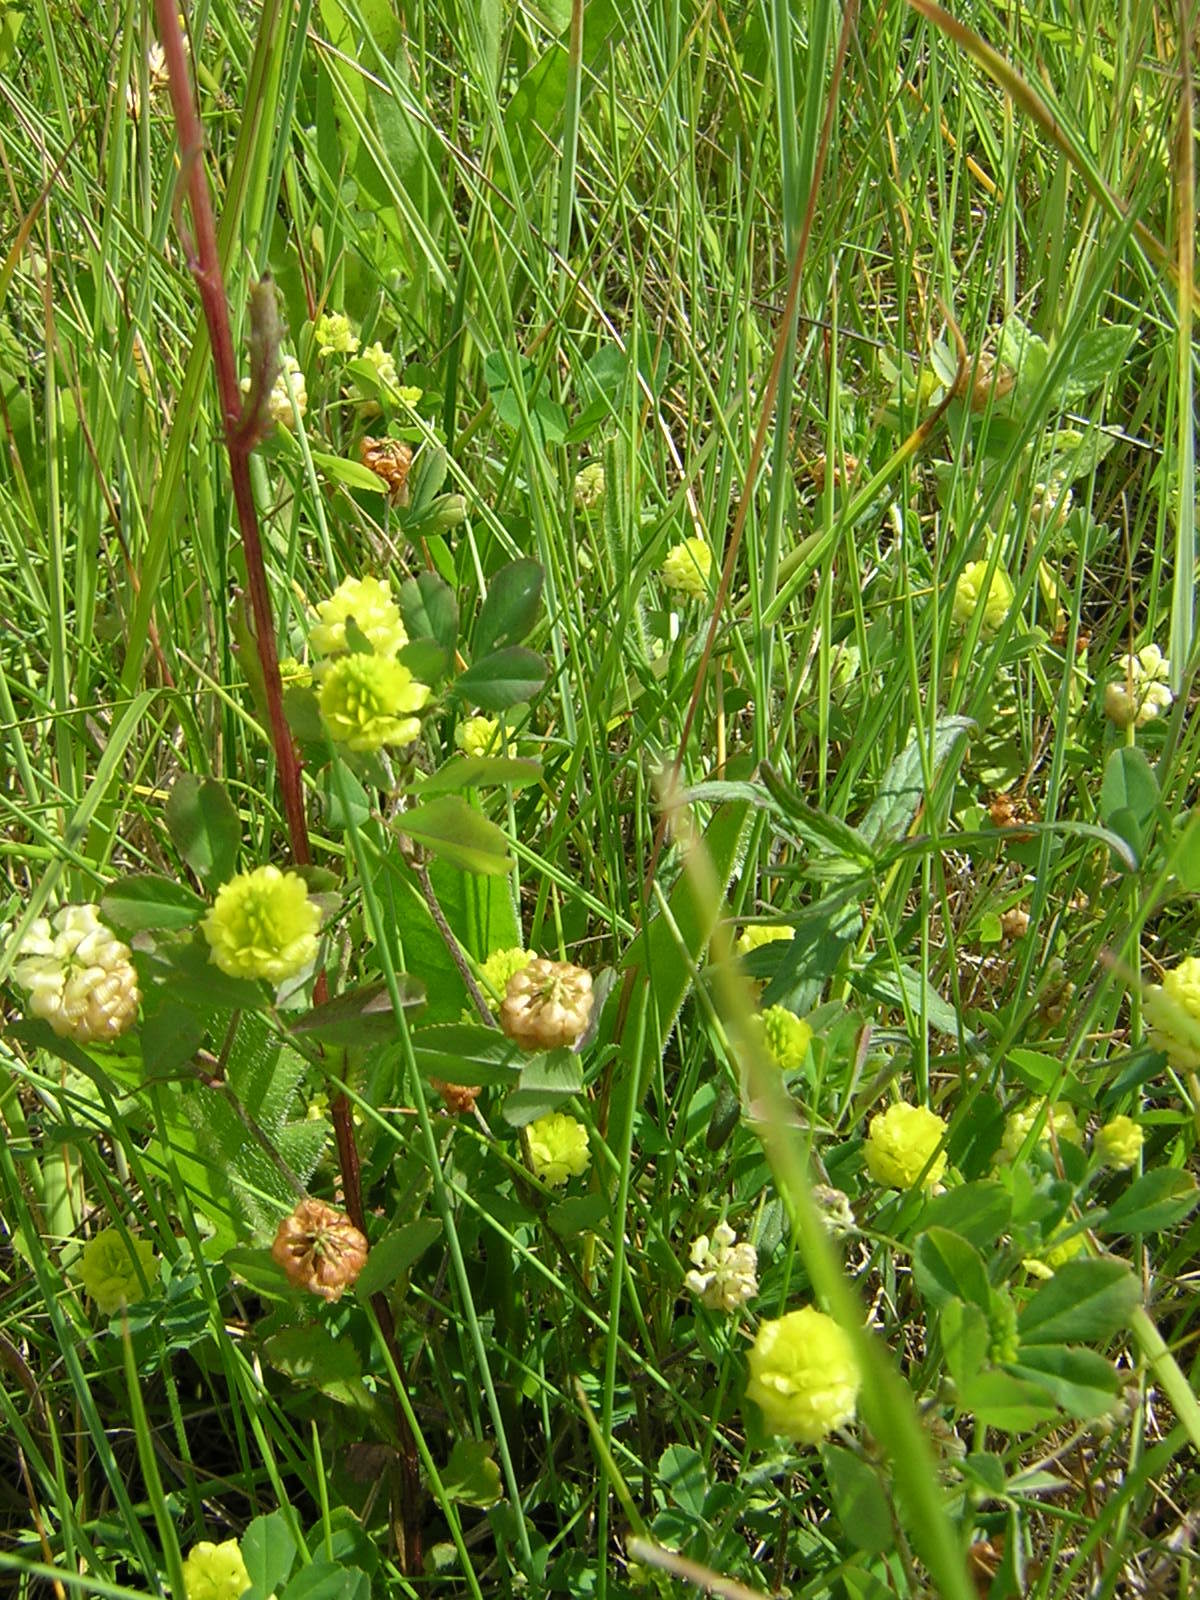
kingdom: Plantae
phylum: Tracheophyta
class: Magnoliopsida
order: Fabales
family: Fabaceae
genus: Trifolium
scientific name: Trifolium campestre
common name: Field clover
